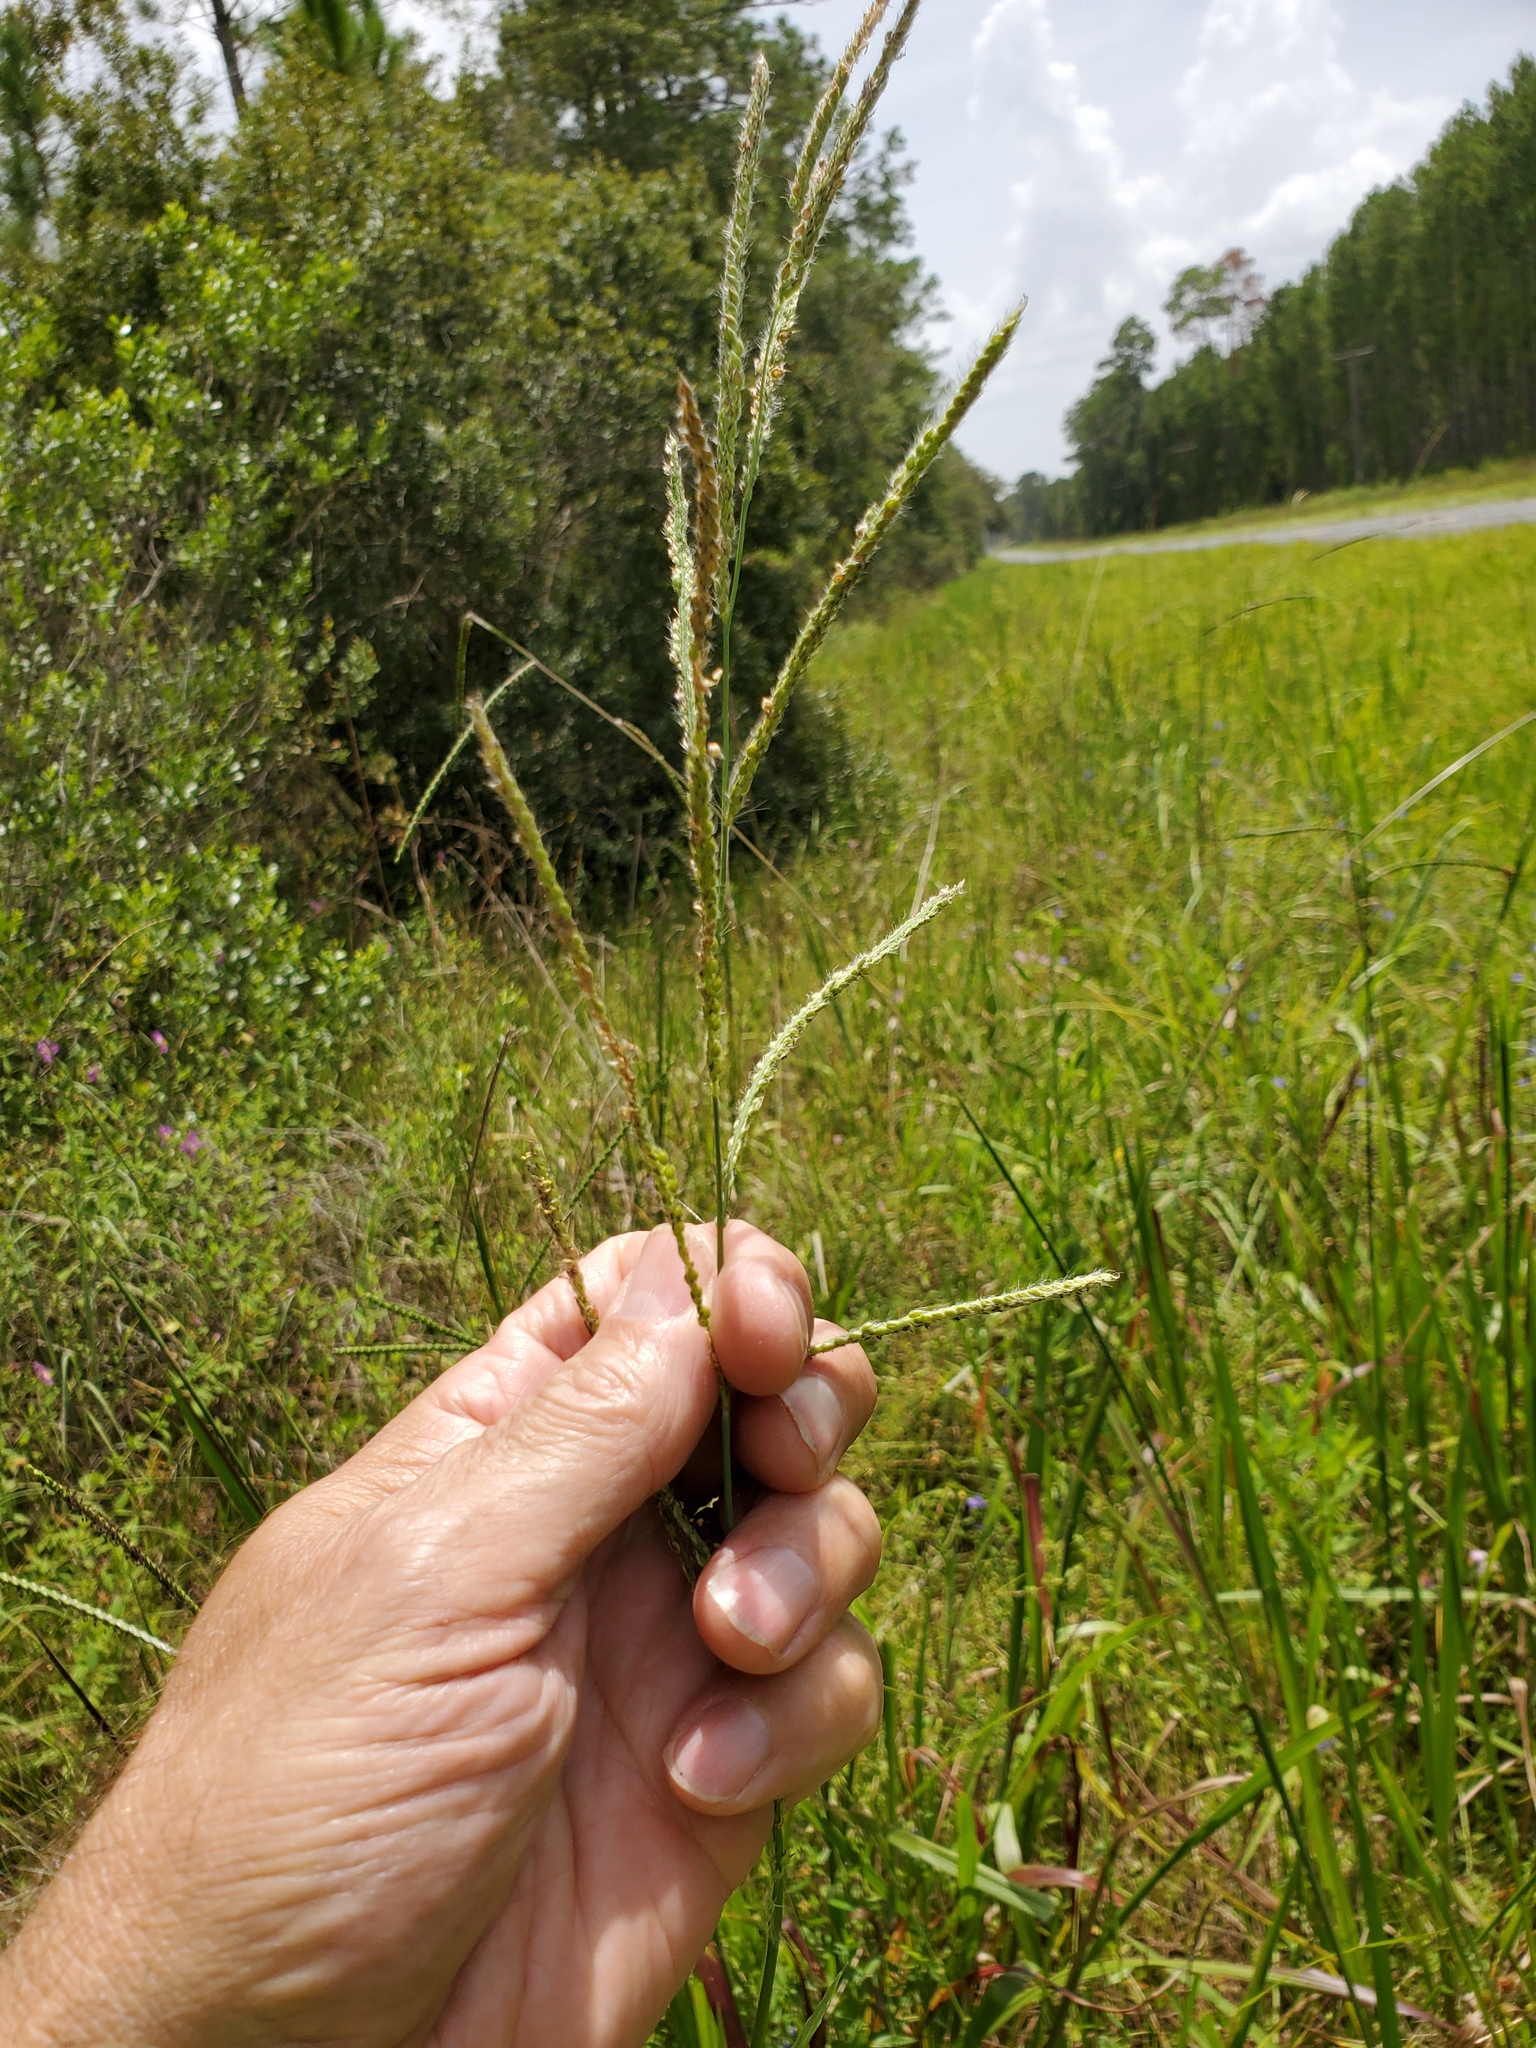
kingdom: Plantae
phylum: Tracheophyta
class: Liliopsida
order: Poales
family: Poaceae
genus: Paspalum
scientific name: Paspalum urvillei
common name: Vasey's grass
